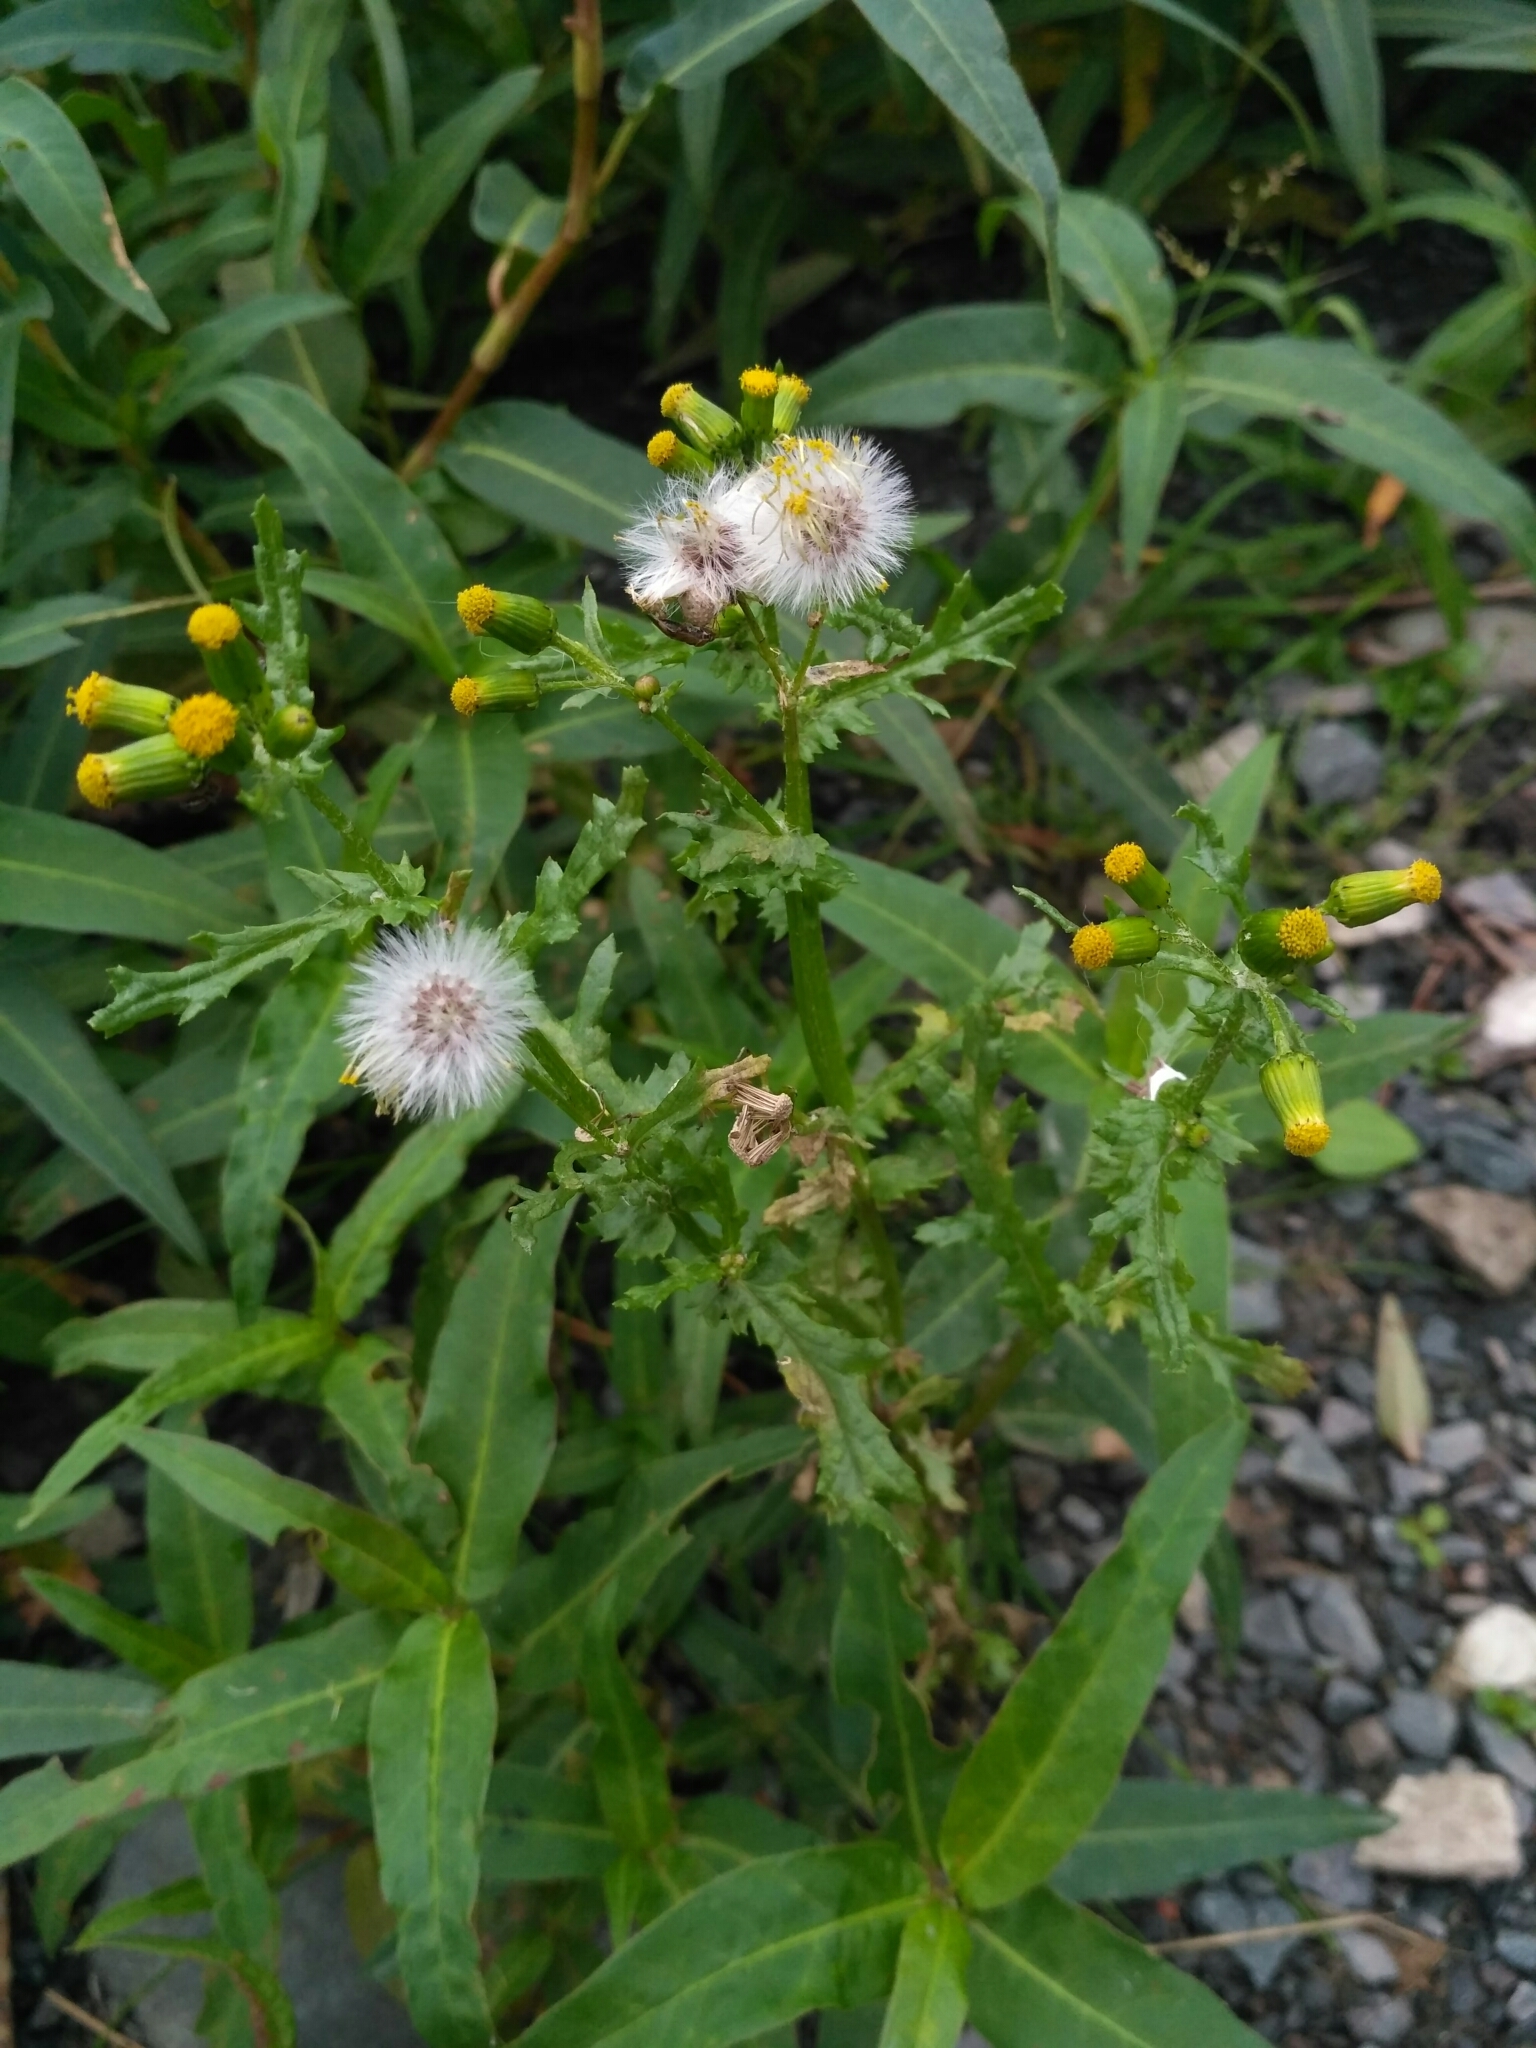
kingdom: Plantae
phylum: Tracheophyta
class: Magnoliopsida
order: Asterales
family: Asteraceae
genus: Senecio
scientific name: Senecio vulgaris
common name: Old-man-in-the-spring
